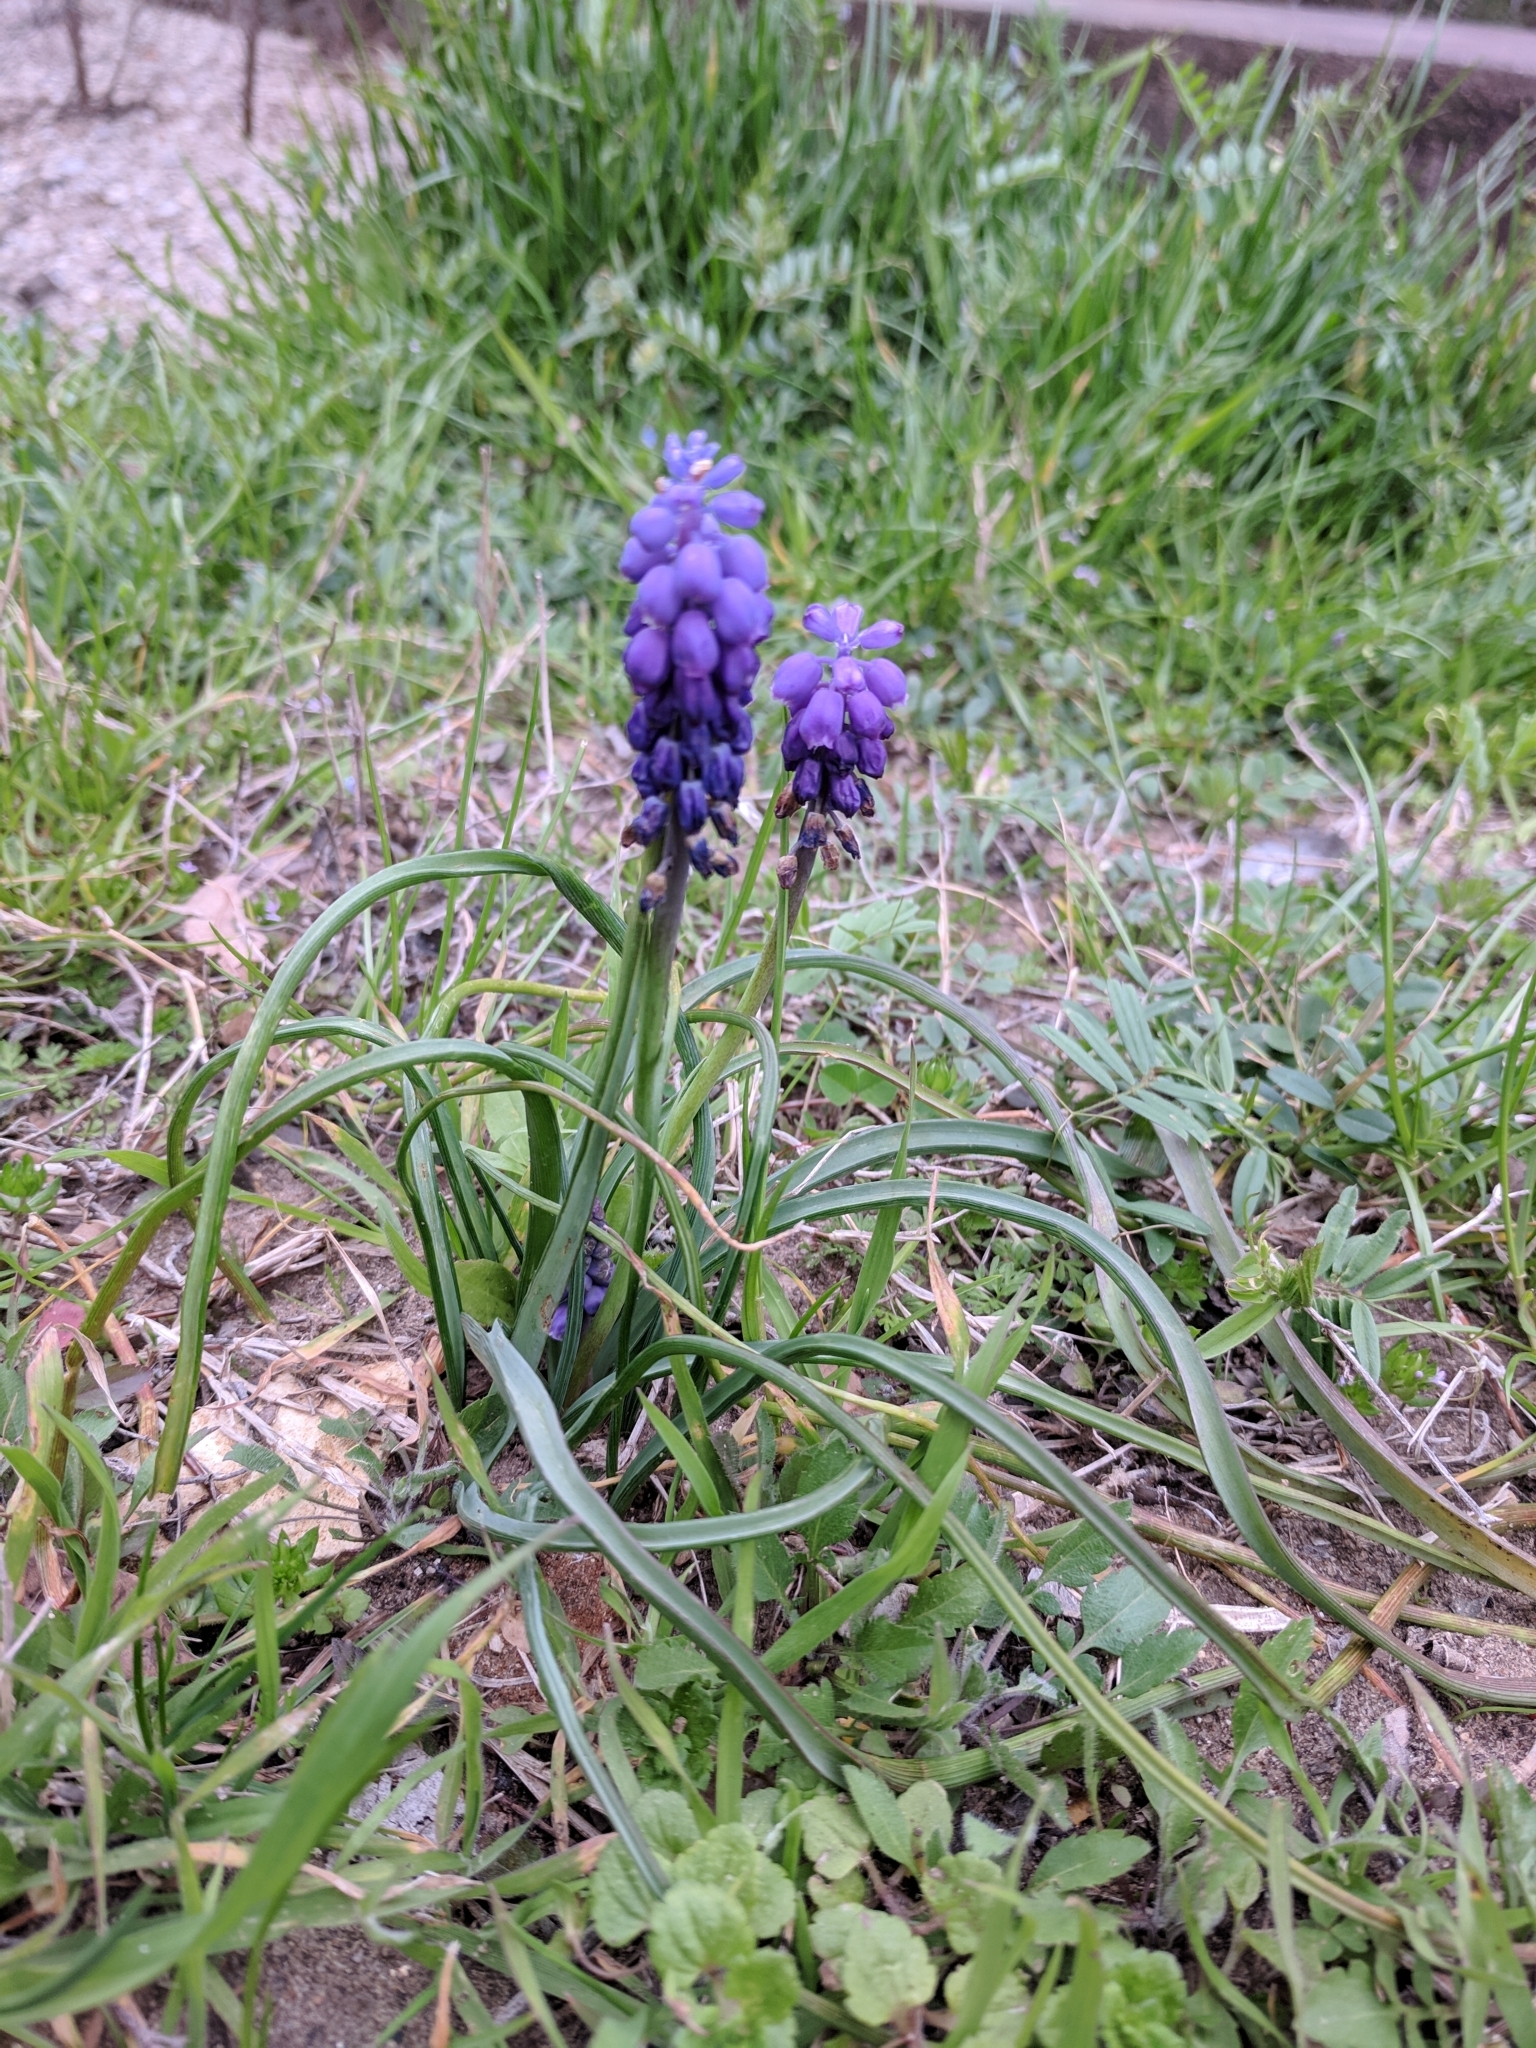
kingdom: Plantae
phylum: Tracheophyta
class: Liliopsida
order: Asparagales
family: Asparagaceae
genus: Muscari
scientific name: Muscari neglectum
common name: Grape-hyacinth
